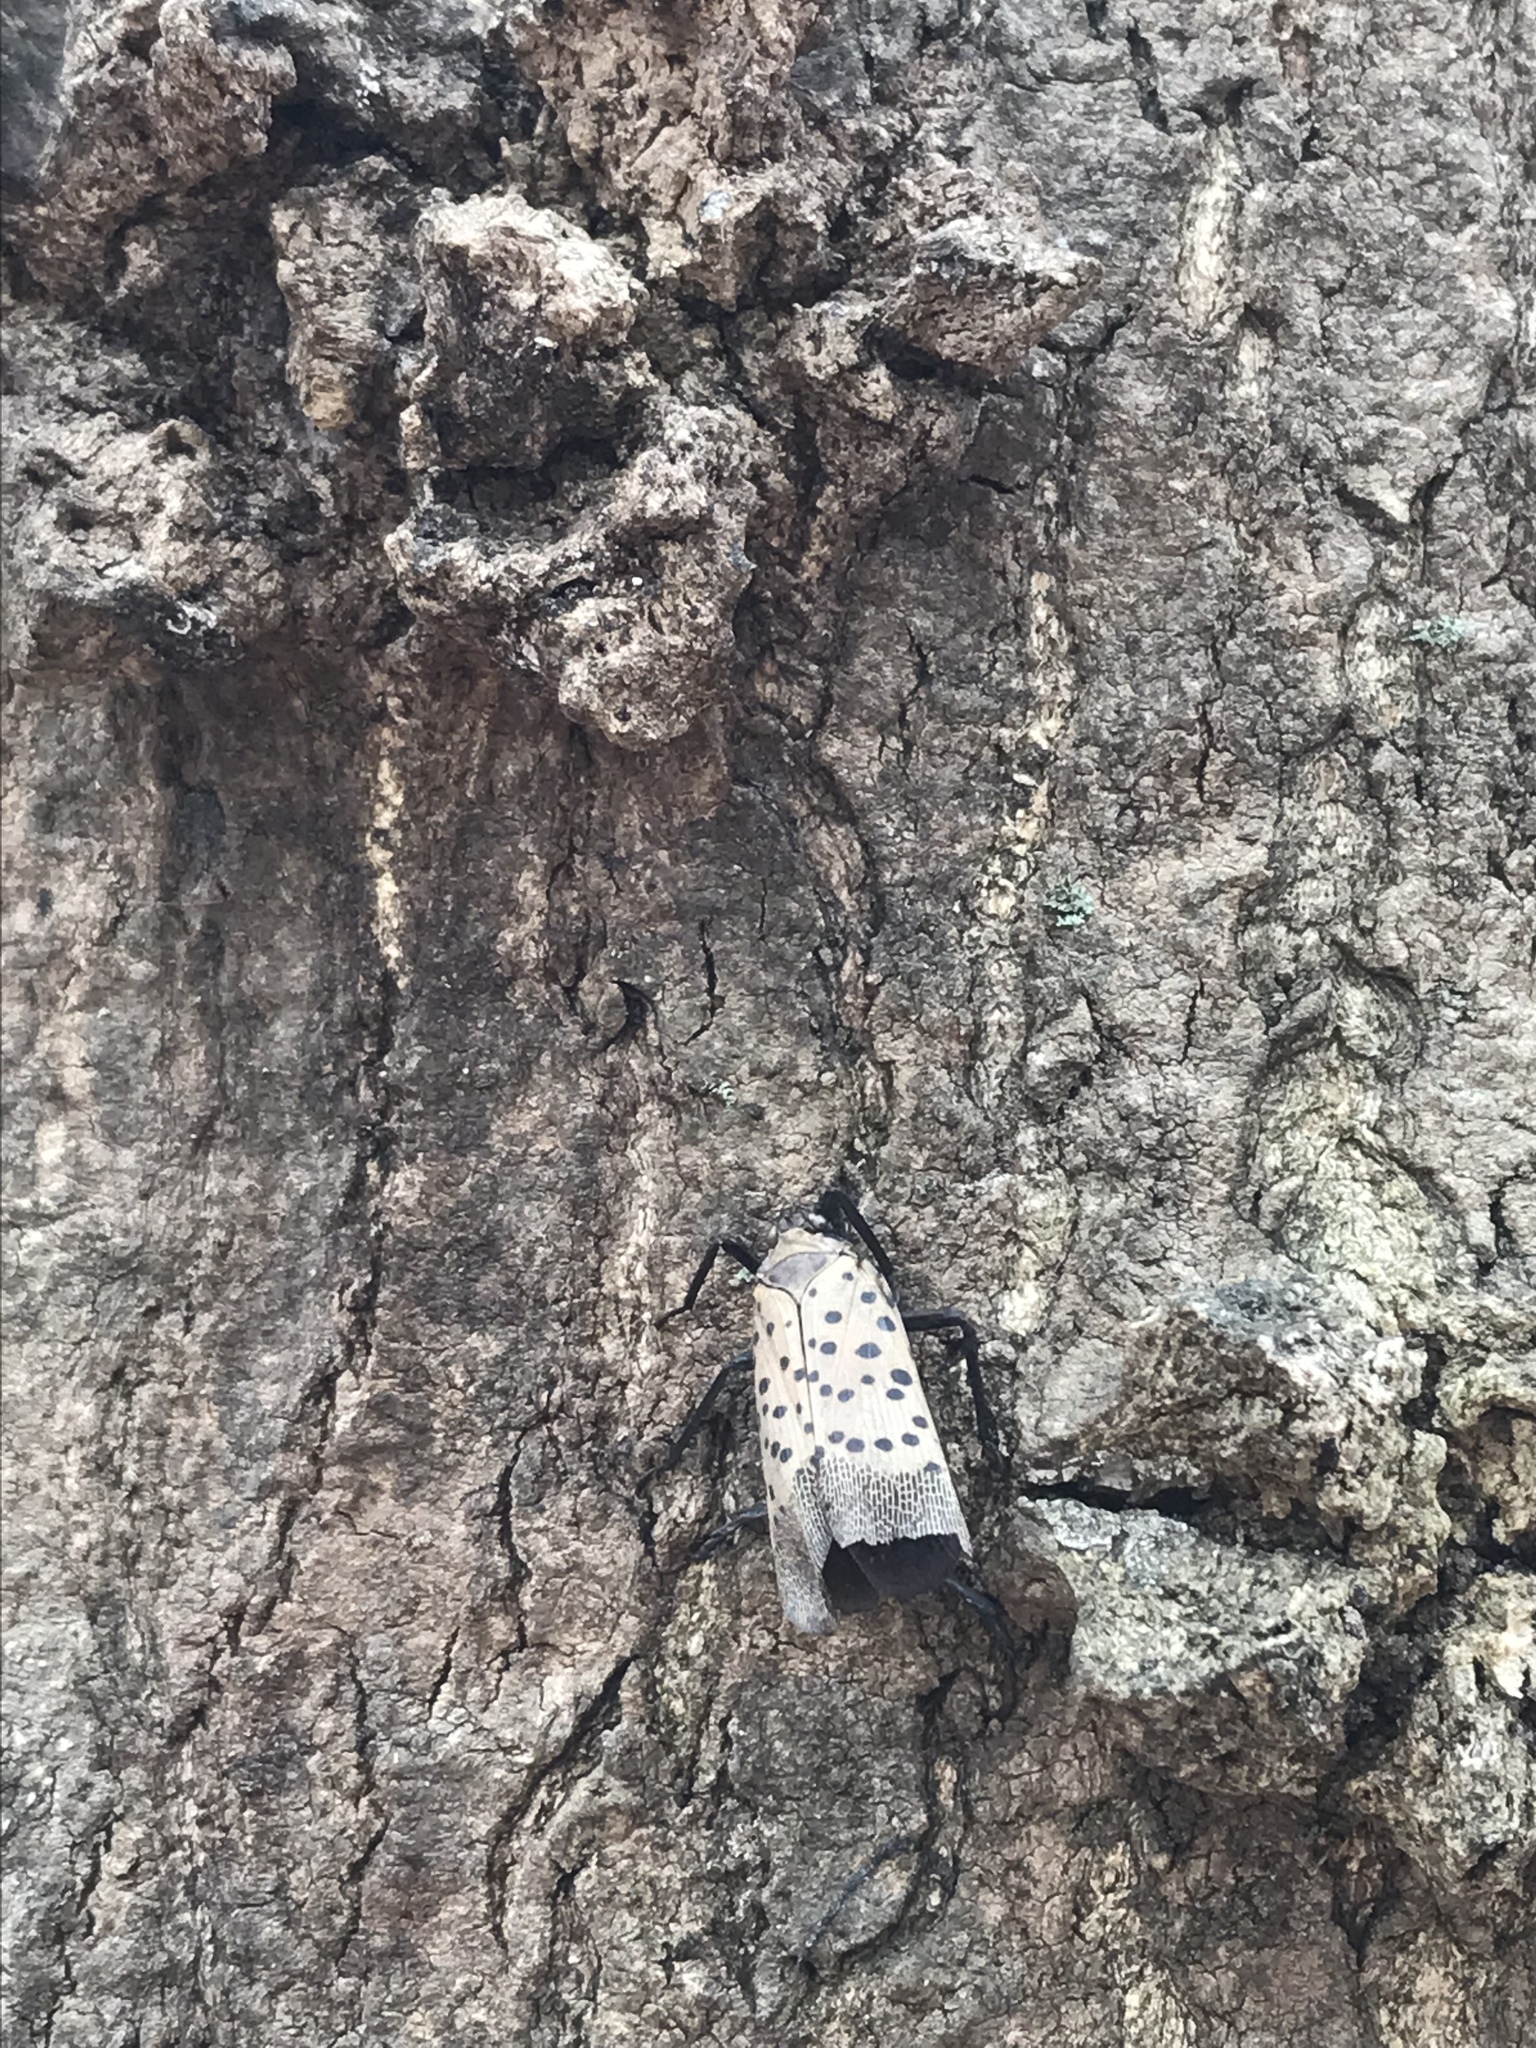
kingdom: Animalia
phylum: Arthropoda
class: Insecta
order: Hemiptera
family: Fulgoridae
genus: Lycorma
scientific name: Lycorma delicatula
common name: Spotted lanternfly
